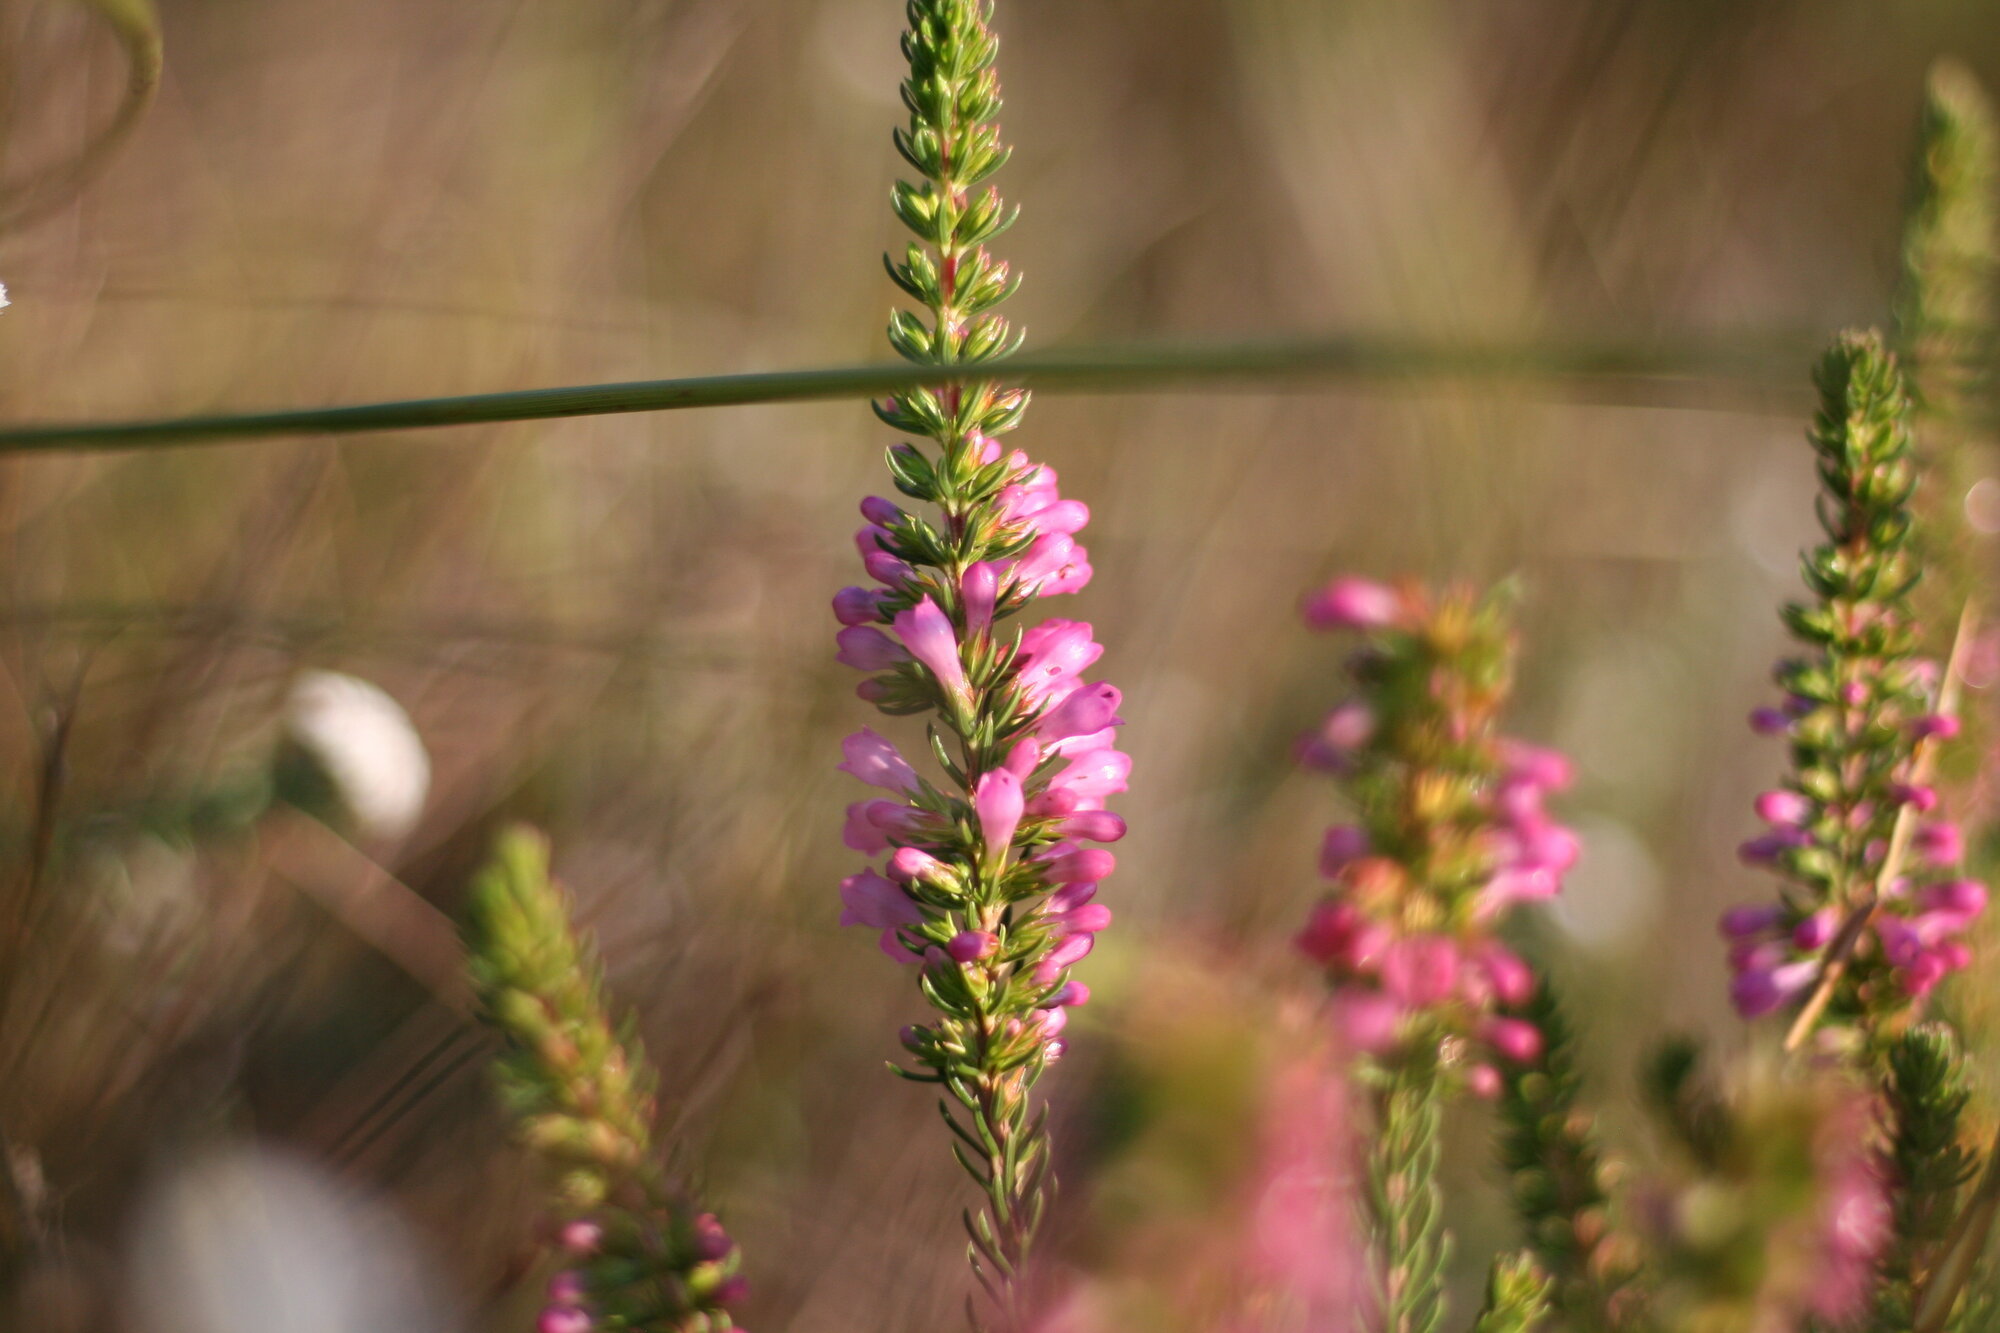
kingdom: Plantae
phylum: Tracheophyta
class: Magnoliopsida
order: Ericales
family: Ericaceae
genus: Erica
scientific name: Erica abietina
